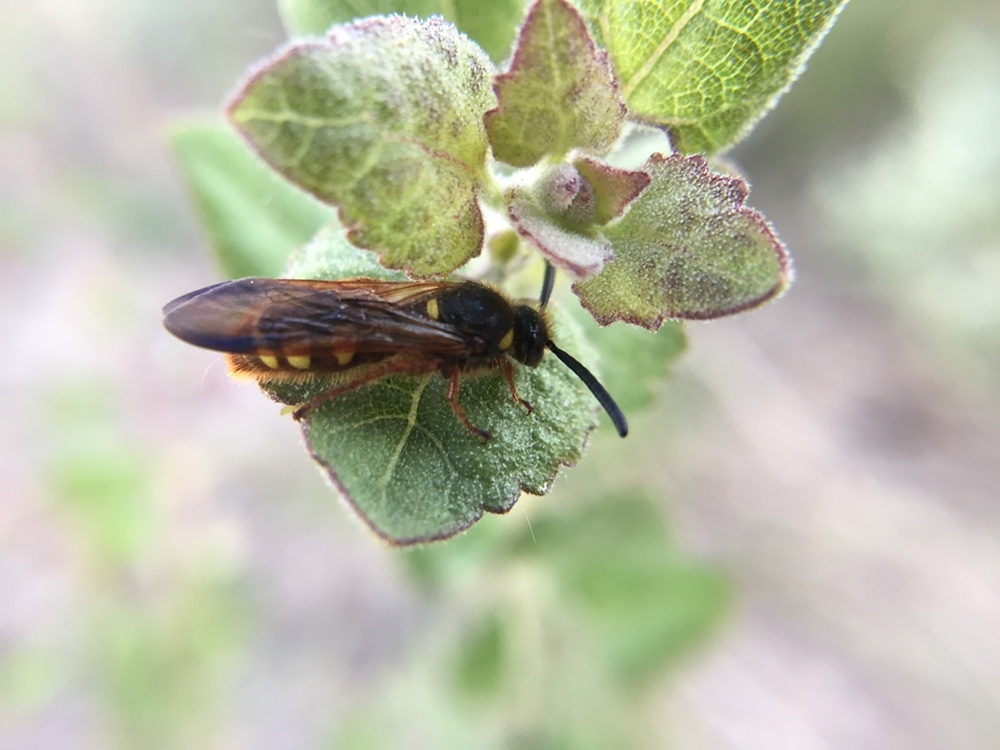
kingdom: Animalia
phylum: Arthropoda
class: Insecta
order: Hymenoptera
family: Scoliidae
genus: Scolia
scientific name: Scolia nobilitata
